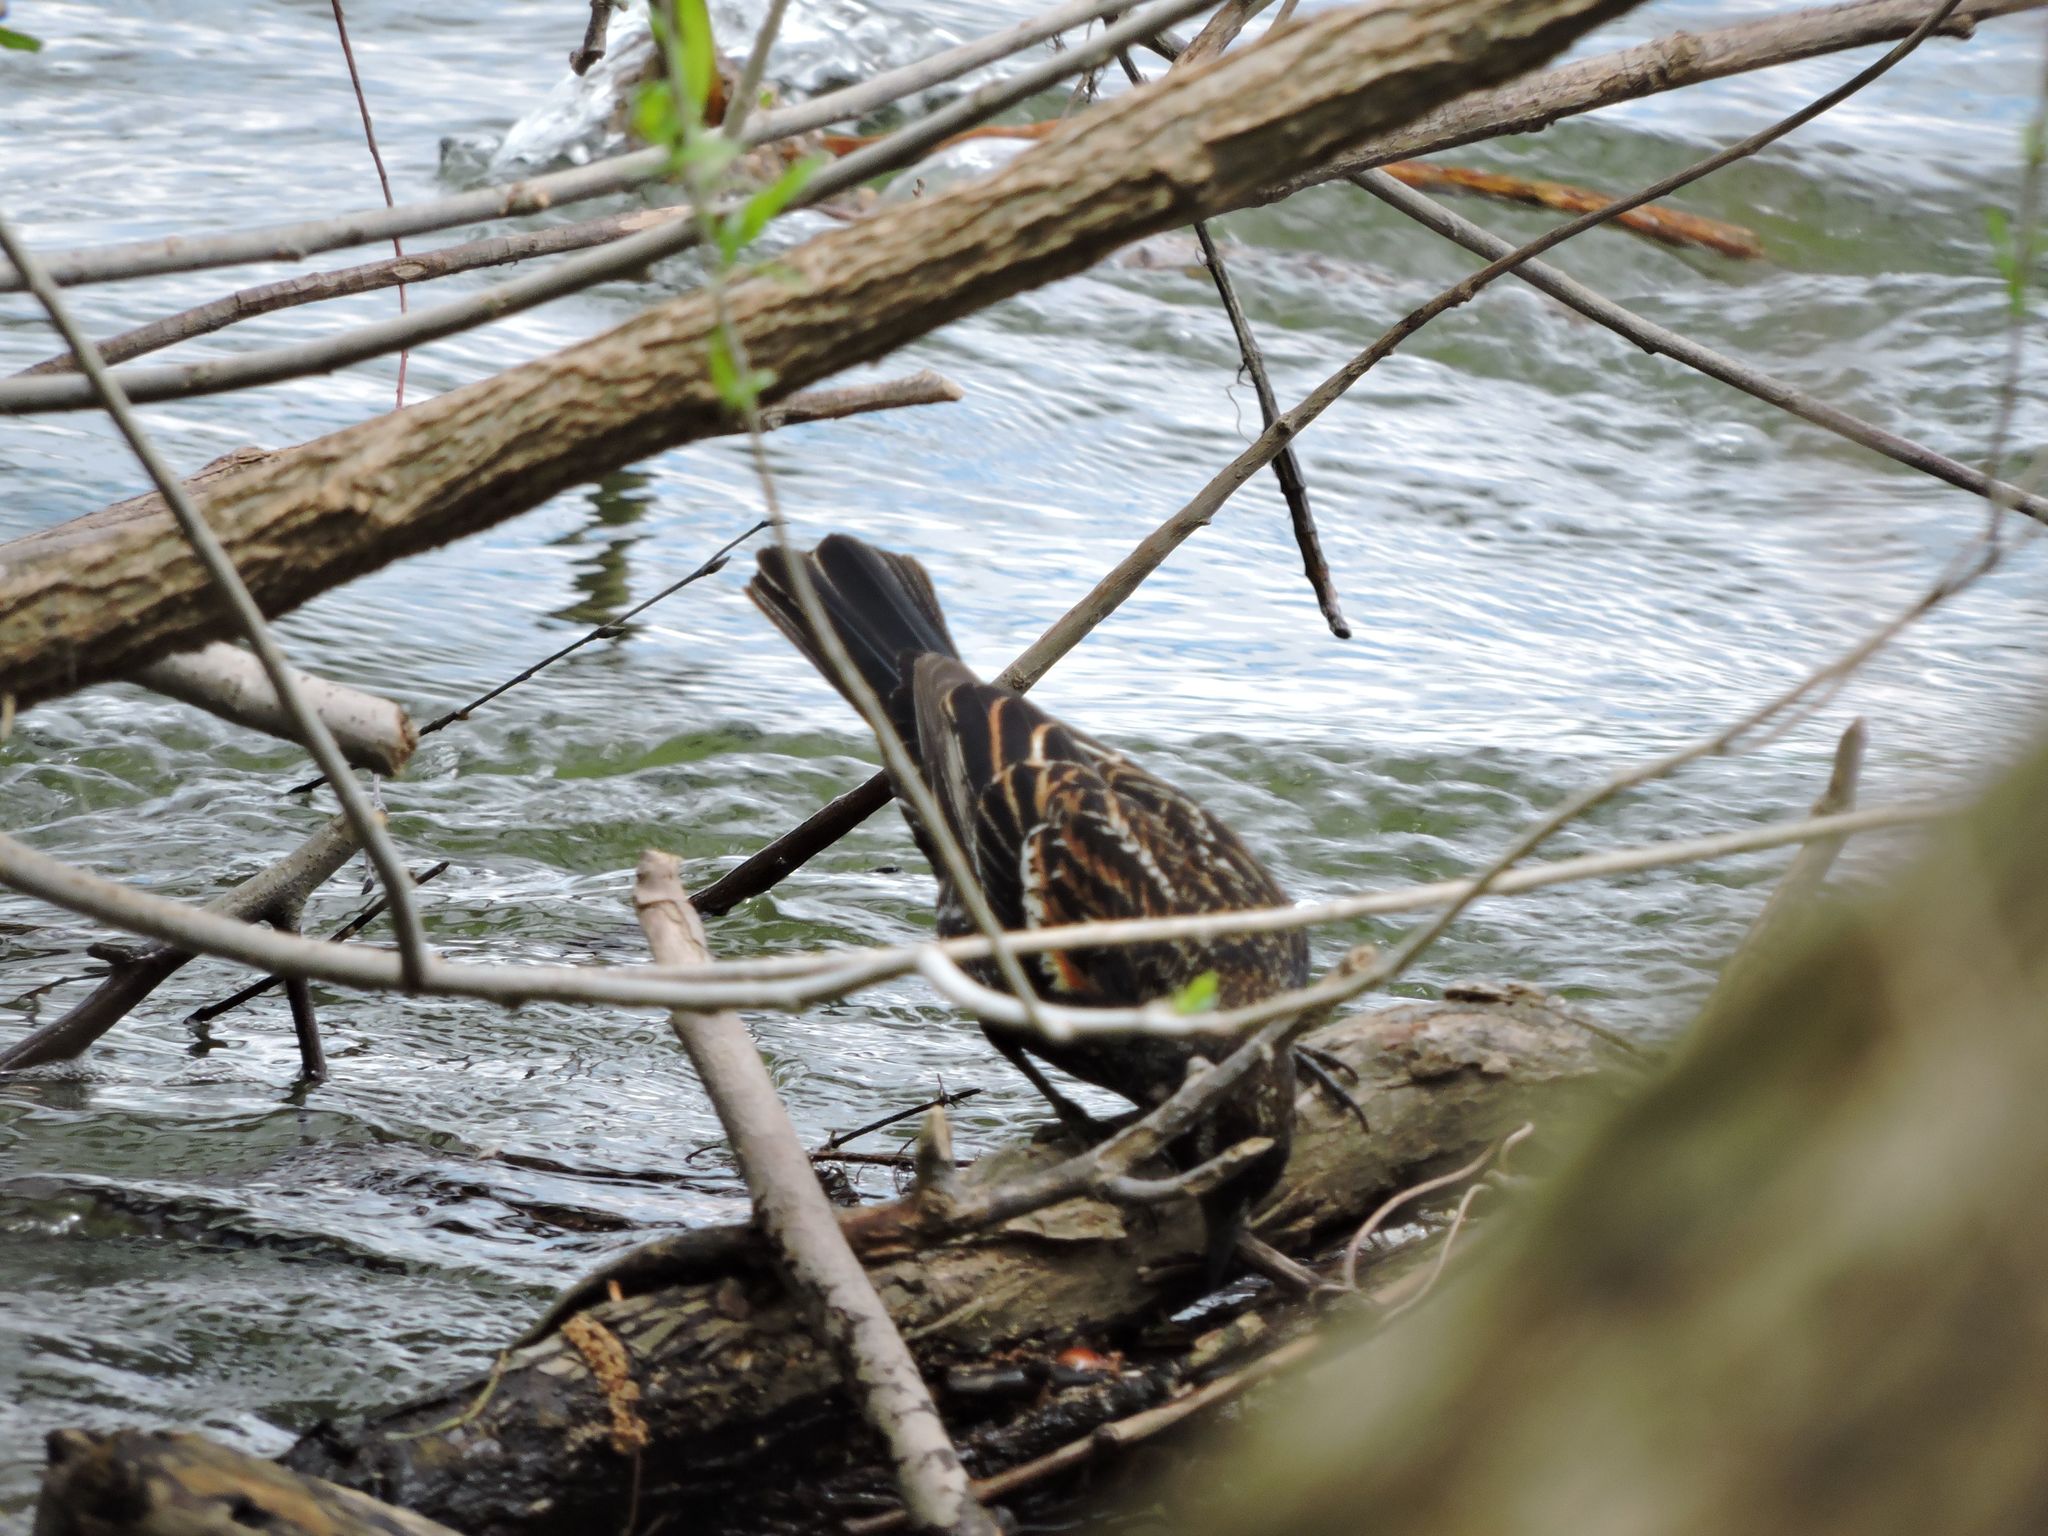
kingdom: Animalia
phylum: Chordata
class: Aves
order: Passeriformes
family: Icteridae
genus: Agelaius
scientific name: Agelaius phoeniceus
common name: Red-winged blackbird
